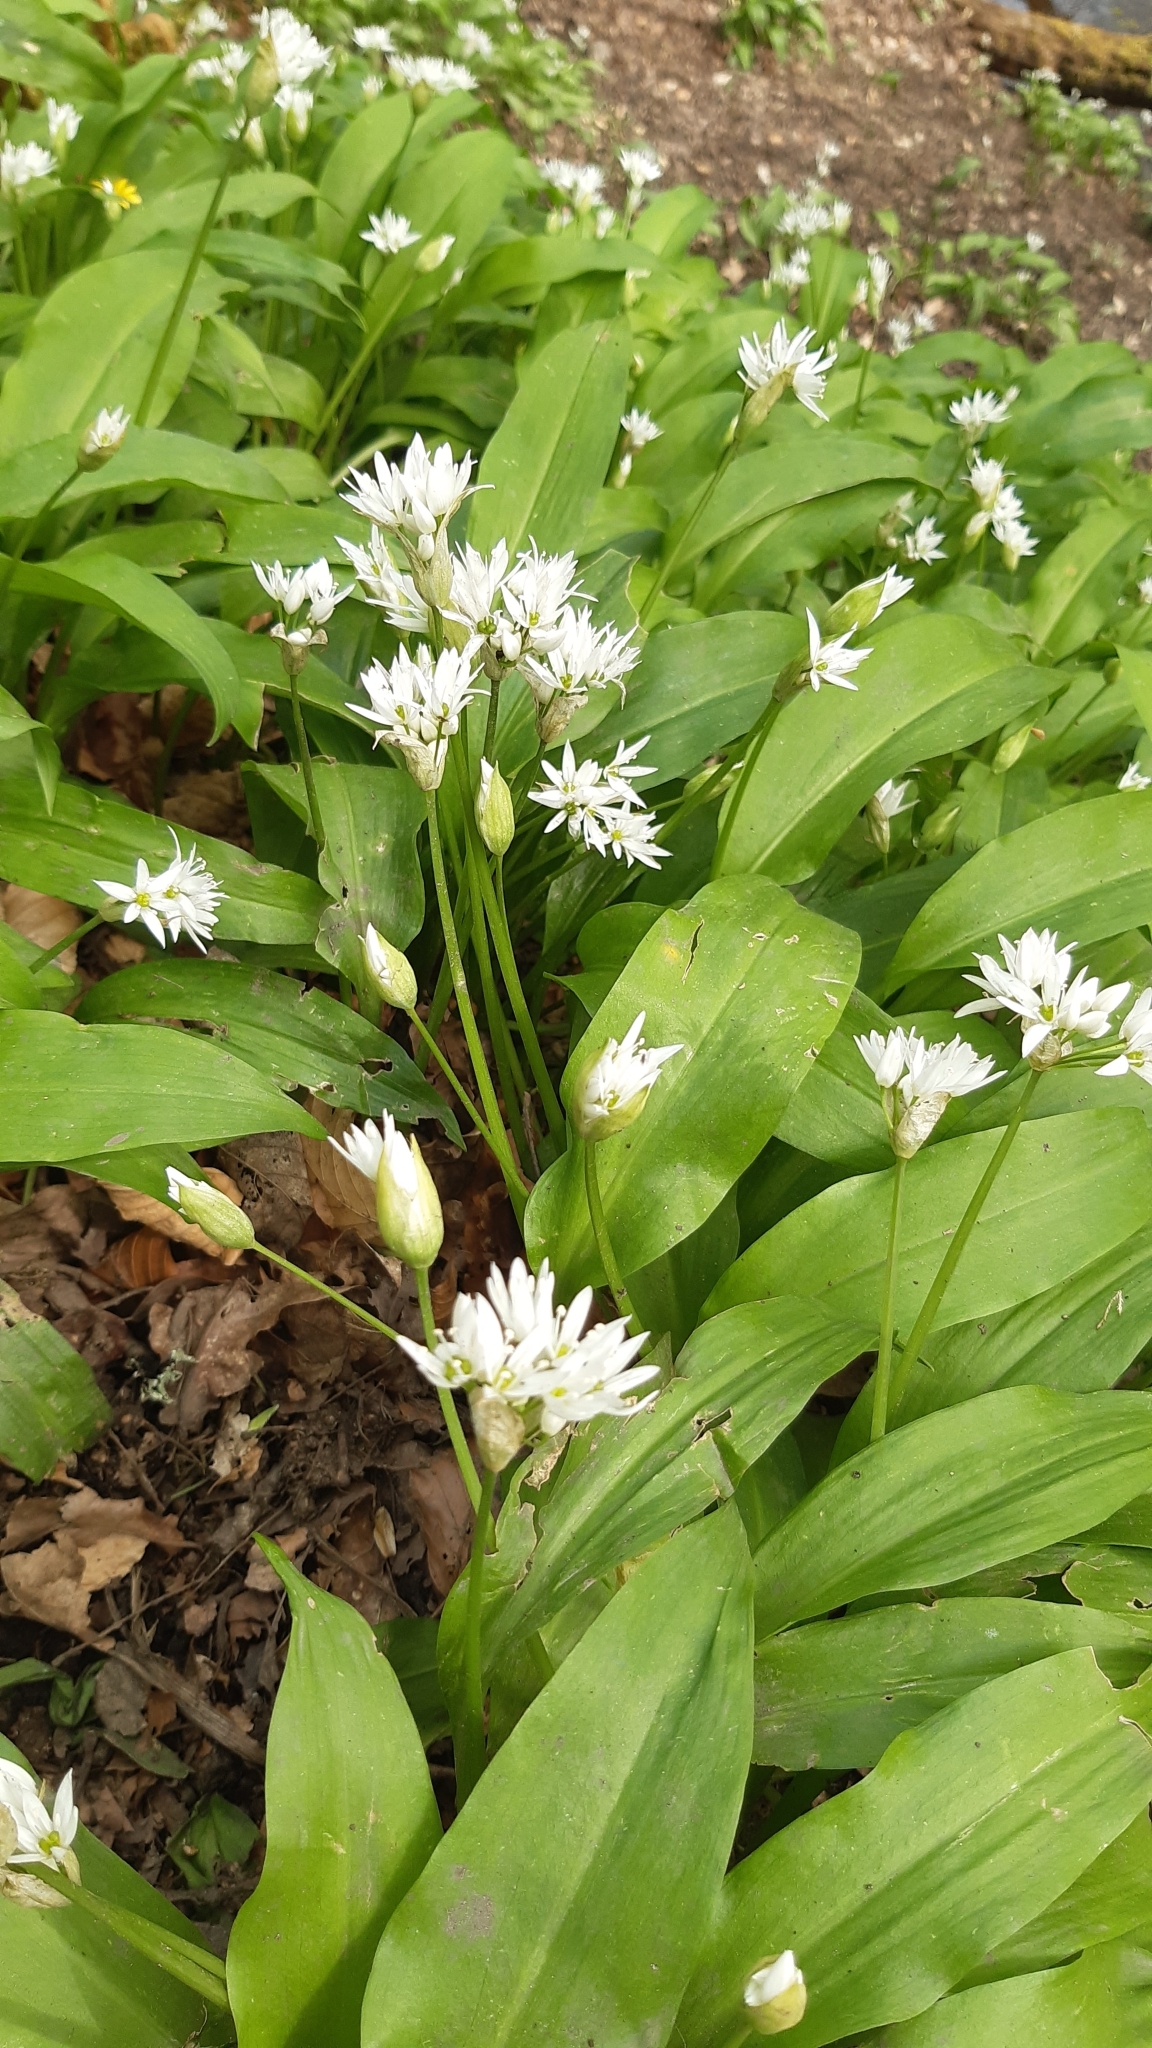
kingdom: Plantae
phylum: Tracheophyta
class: Liliopsida
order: Asparagales
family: Amaryllidaceae
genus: Allium
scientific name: Allium ursinum
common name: Ramsons
